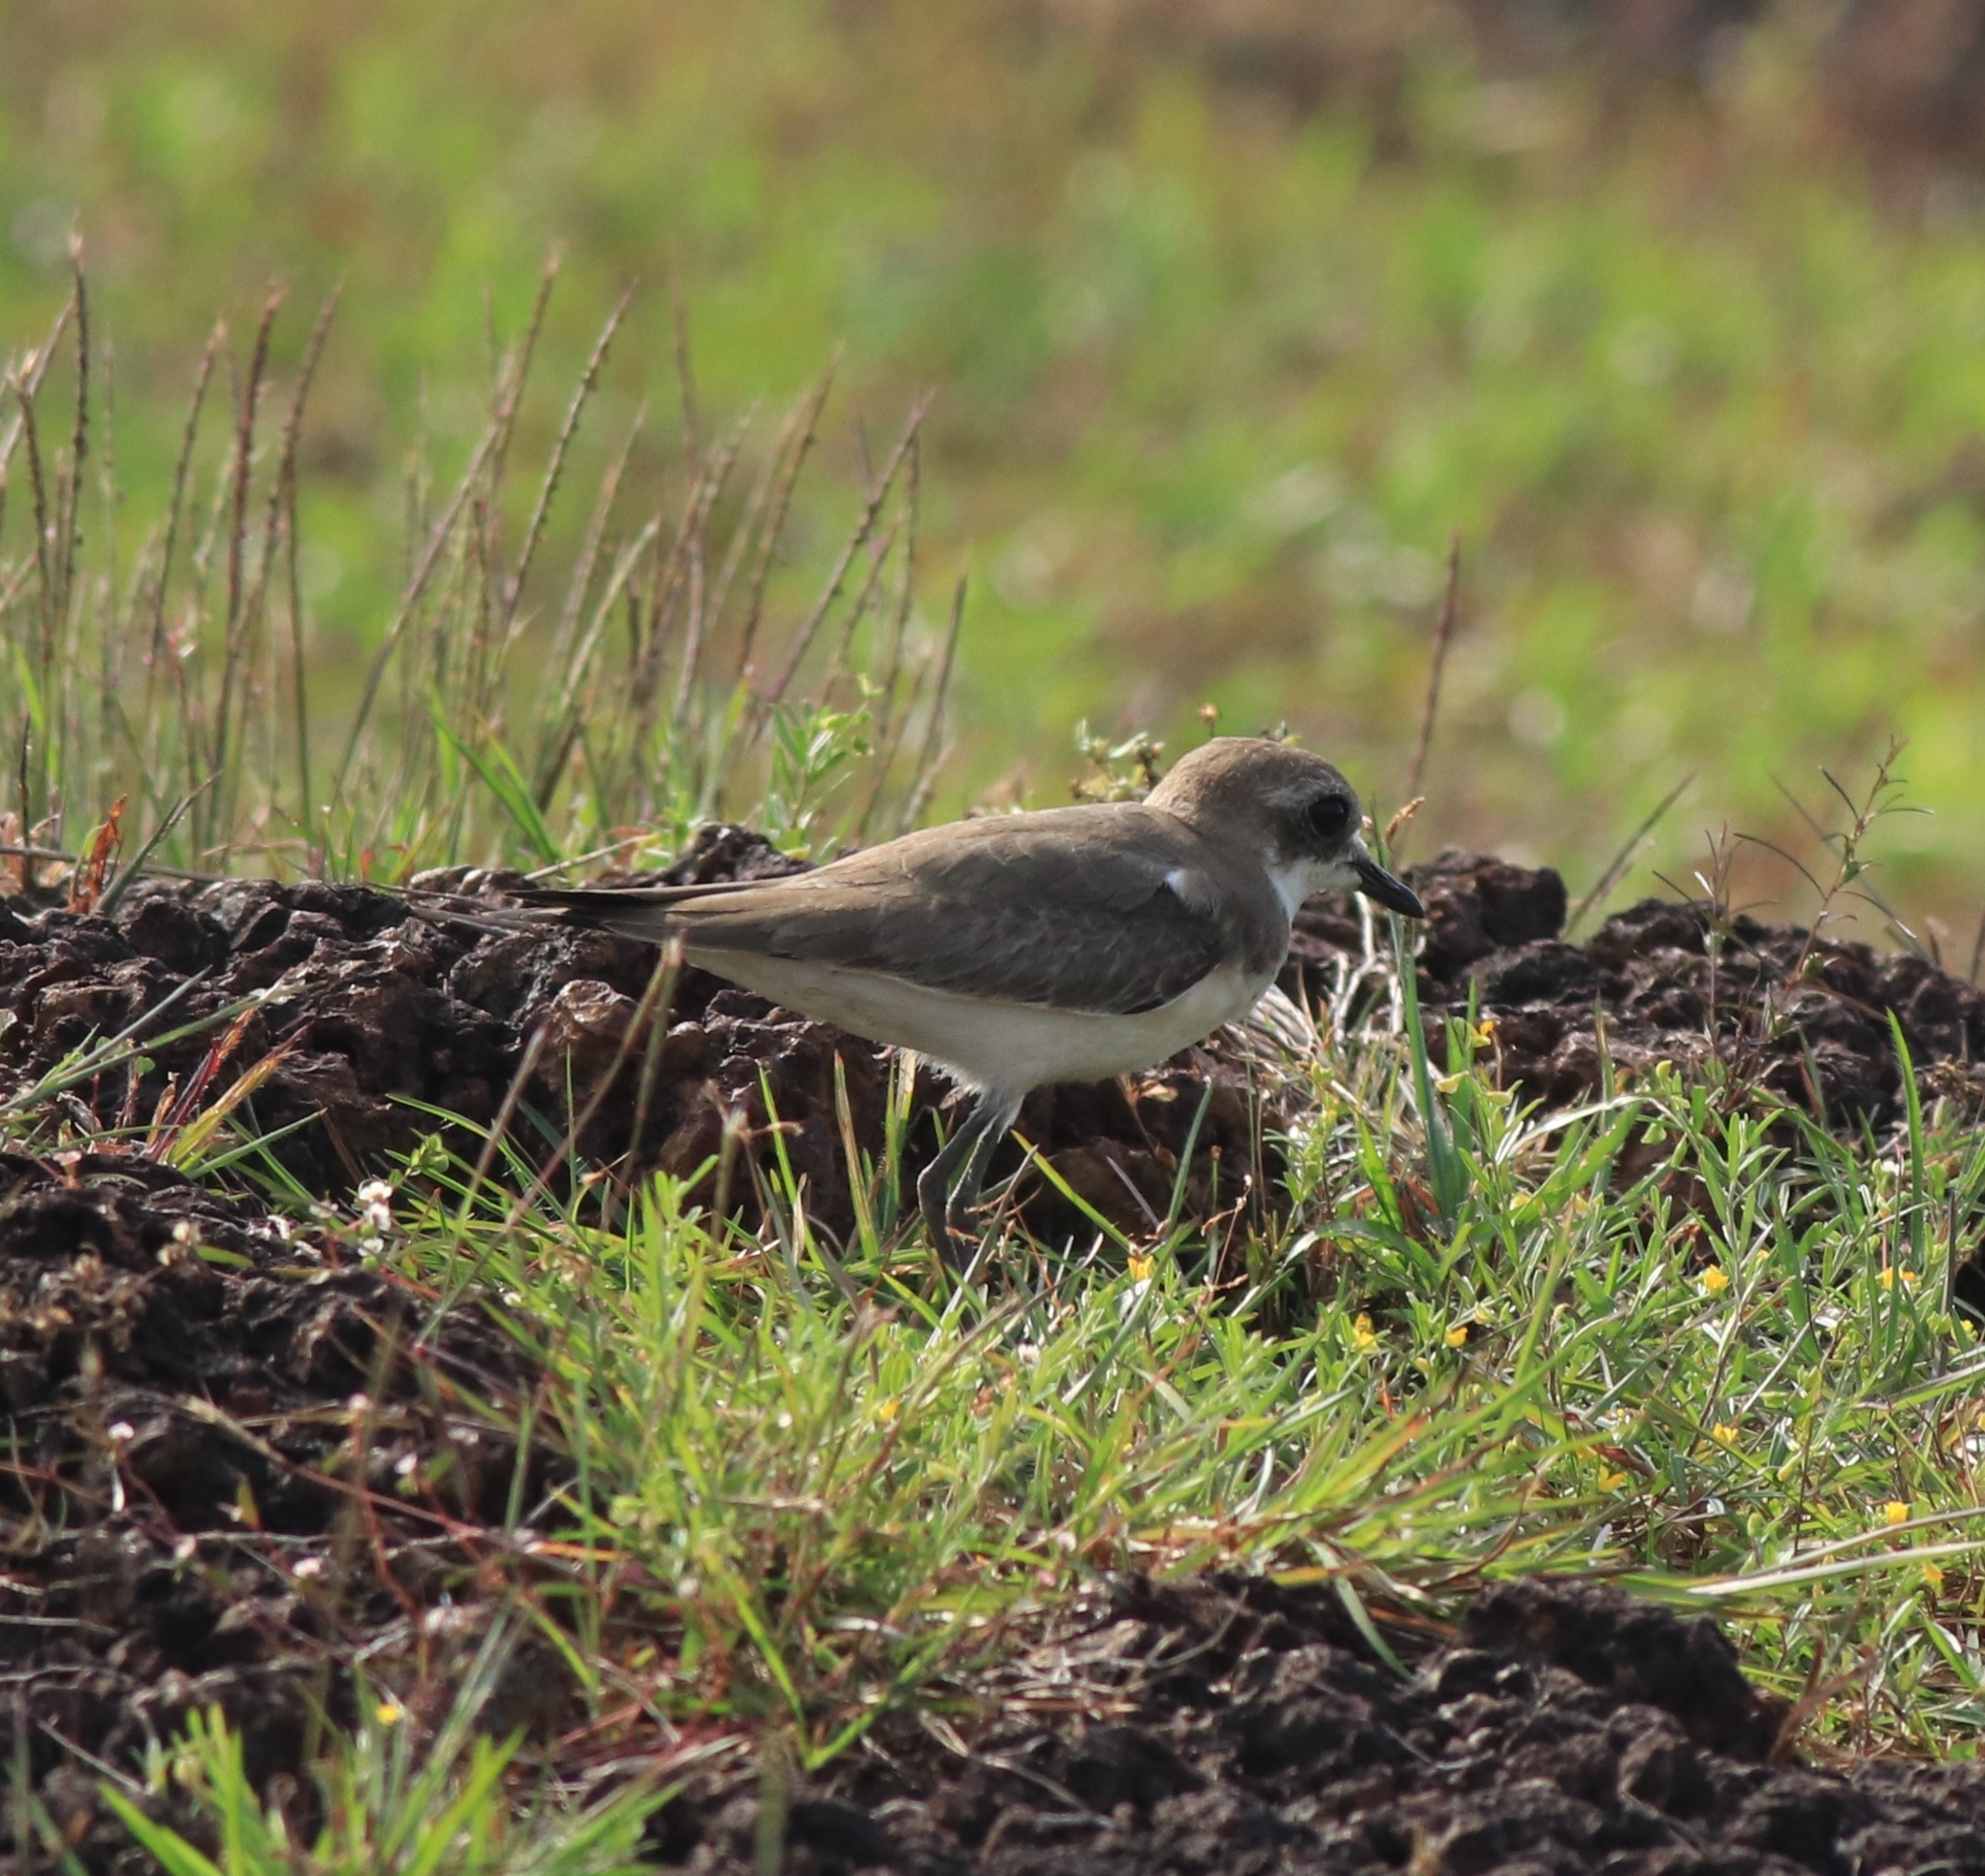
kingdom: Animalia
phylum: Chordata
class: Aves
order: Charadriiformes
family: Charadriidae
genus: Anarhynchus
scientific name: Anarhynchus
